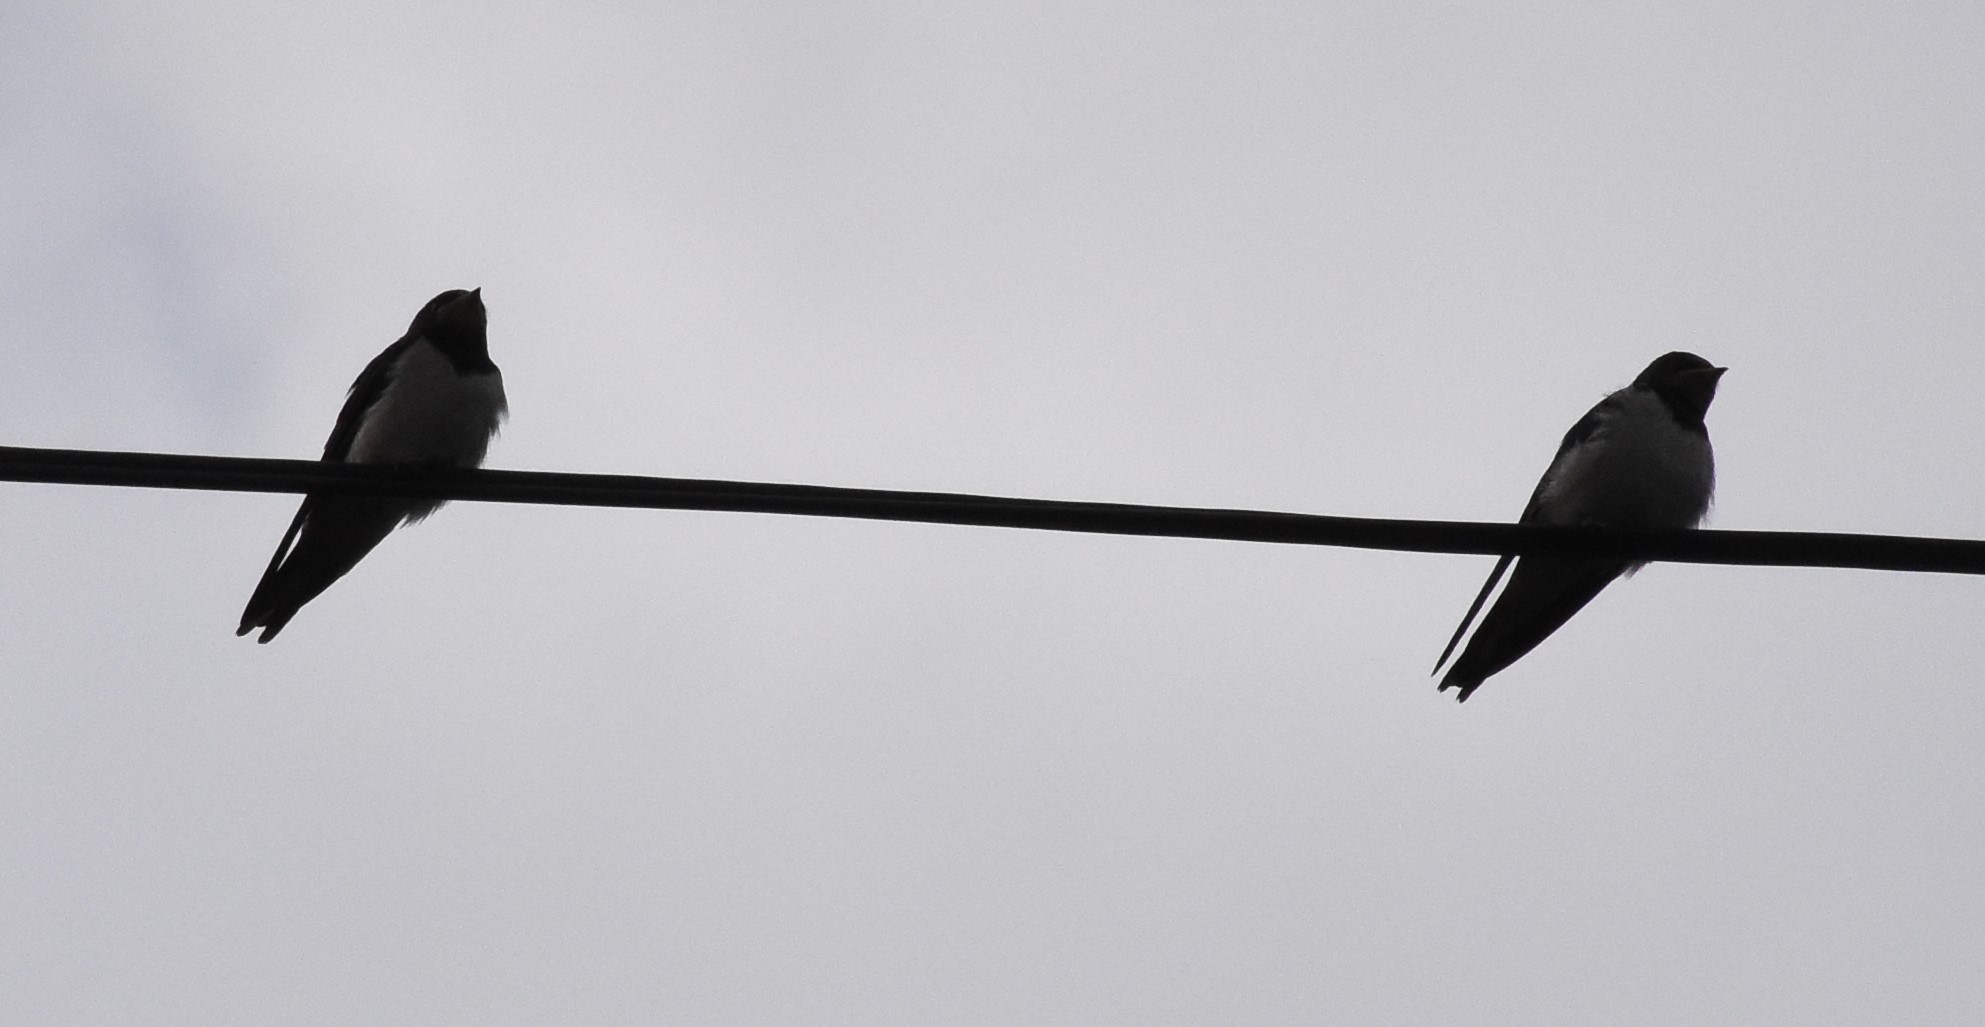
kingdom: Animalia
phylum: Chordata
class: Aves
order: Passeriformes
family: Hirundinidae
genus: Hirundo
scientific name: Hirundo rustica
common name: Barn swallow
